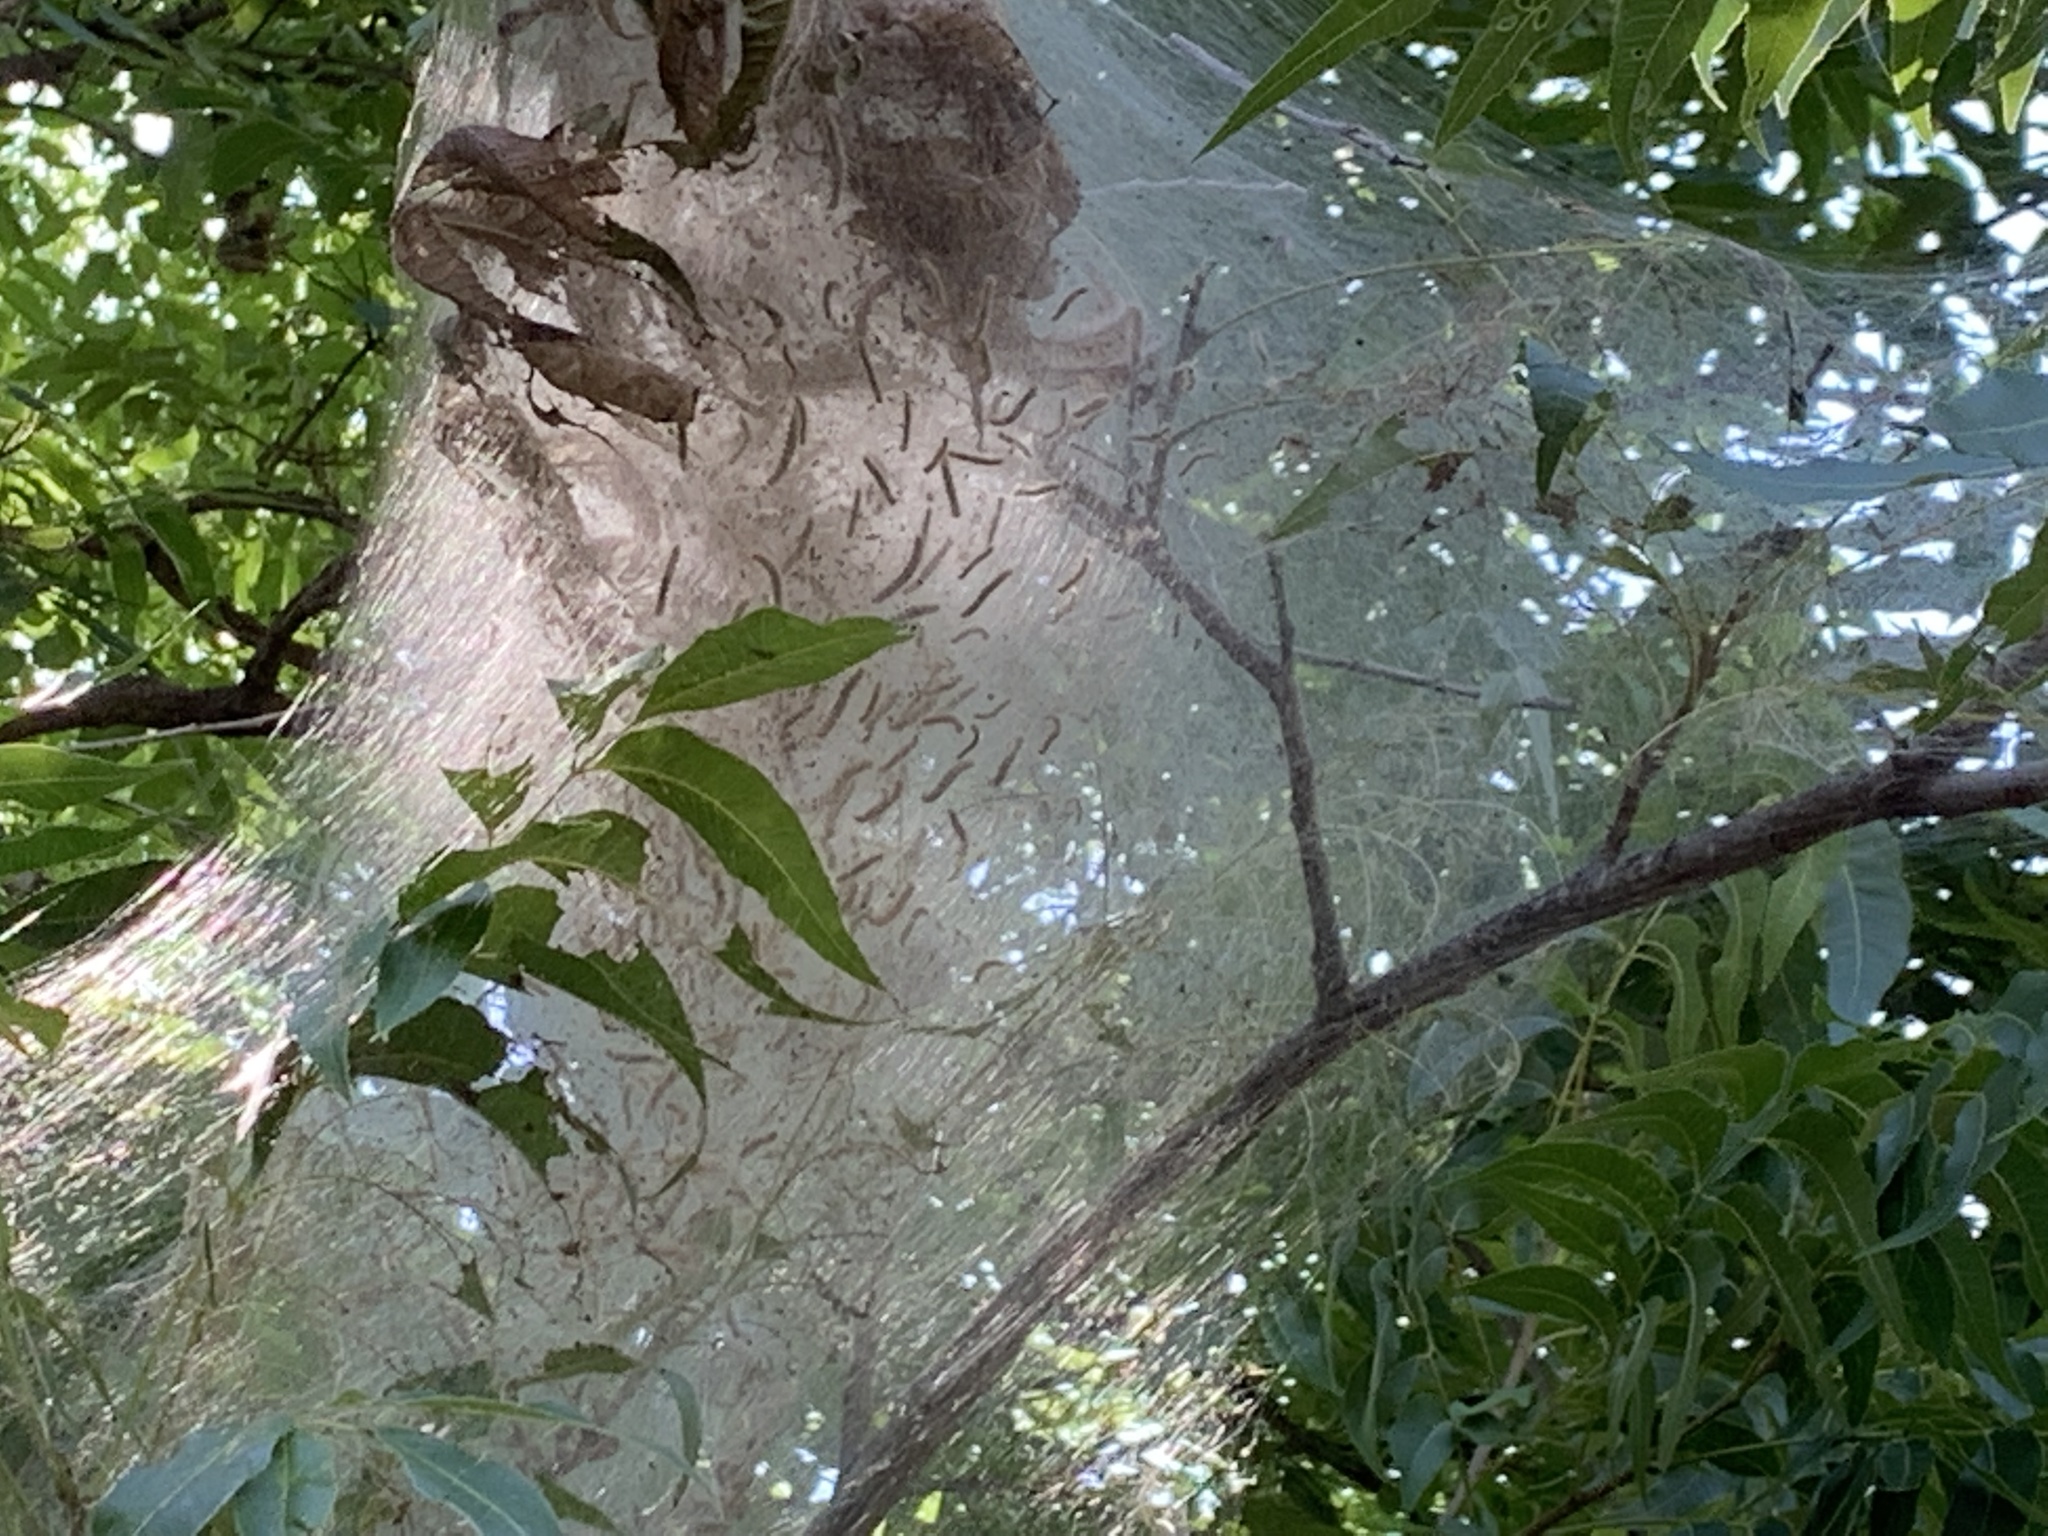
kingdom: Animalia
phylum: Arthropoda
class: Insecta
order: Lepidoptera
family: Erebidae
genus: Hyphantria
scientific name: Hyphantria cunea
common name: American white moth
